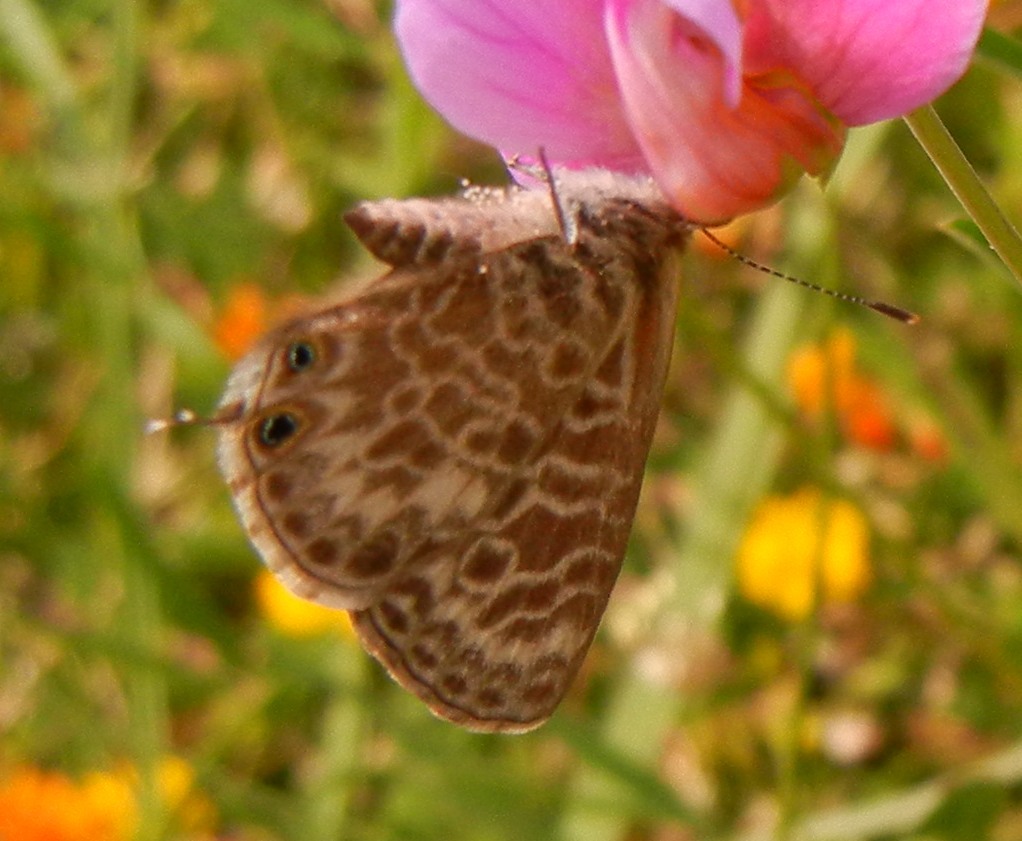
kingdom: Animalia
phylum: Arthropoda
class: Insecta
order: Lepidoptera
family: Lycaenidae
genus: Leptotes
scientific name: Leptotes pirithous
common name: Lang's short-tailed blue
